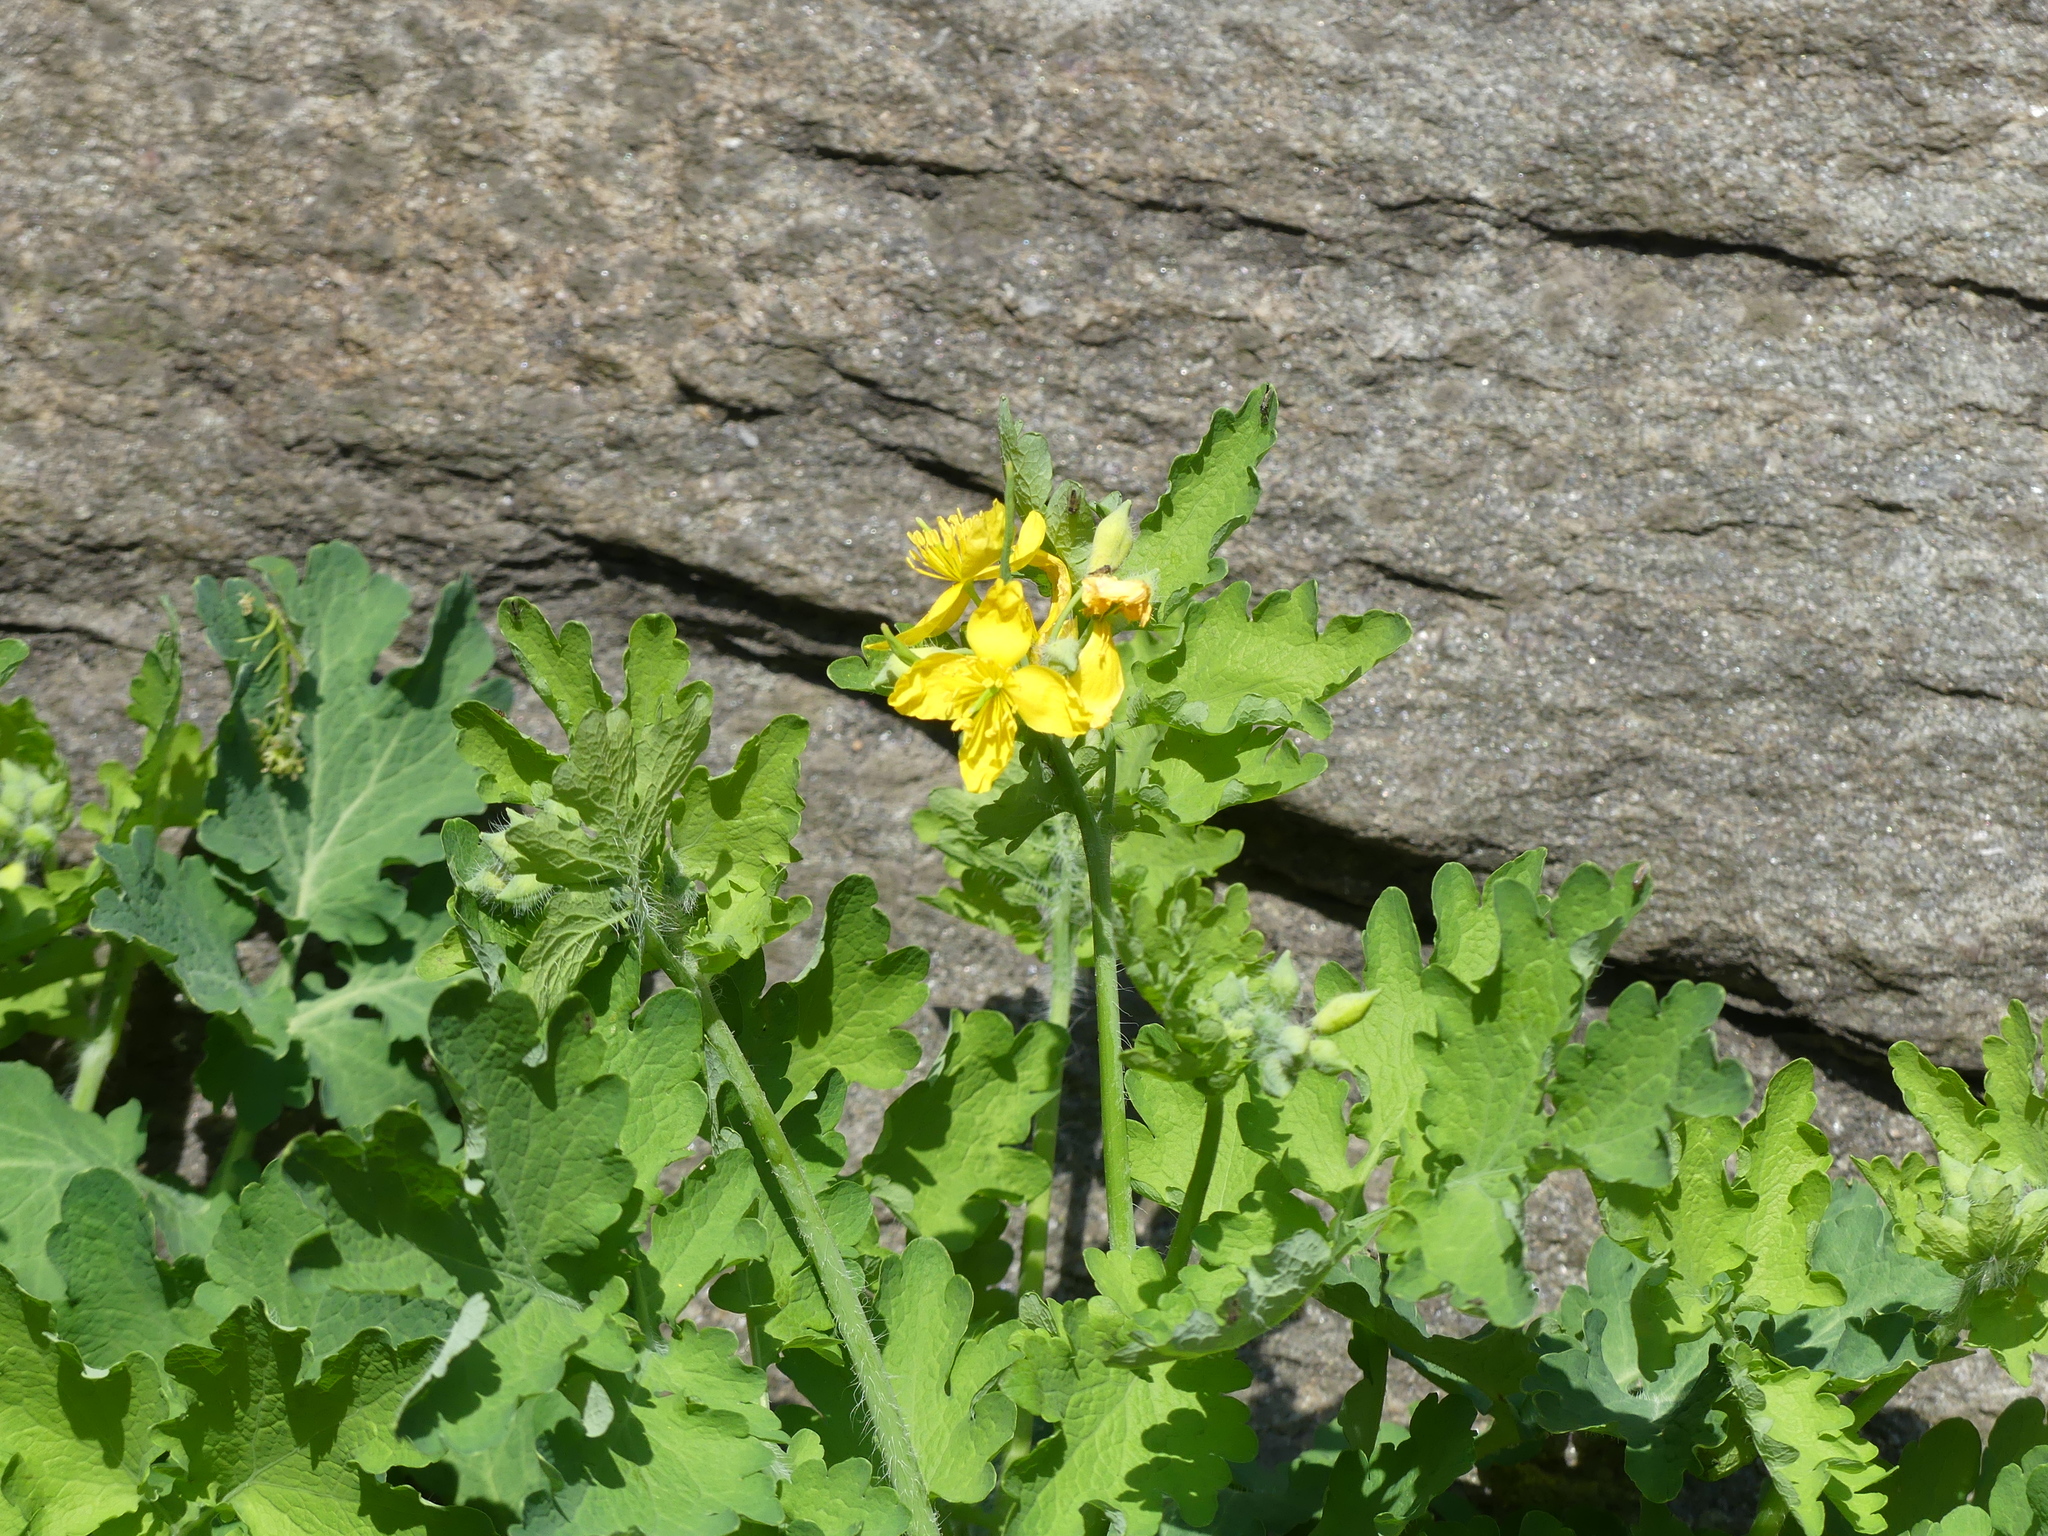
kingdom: Plantae
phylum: Tracheophyta
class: Magnoliopsida
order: Ranunculales
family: Papaveraceae
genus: Chelidonium
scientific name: Chelidonium majus
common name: Greater celandine
